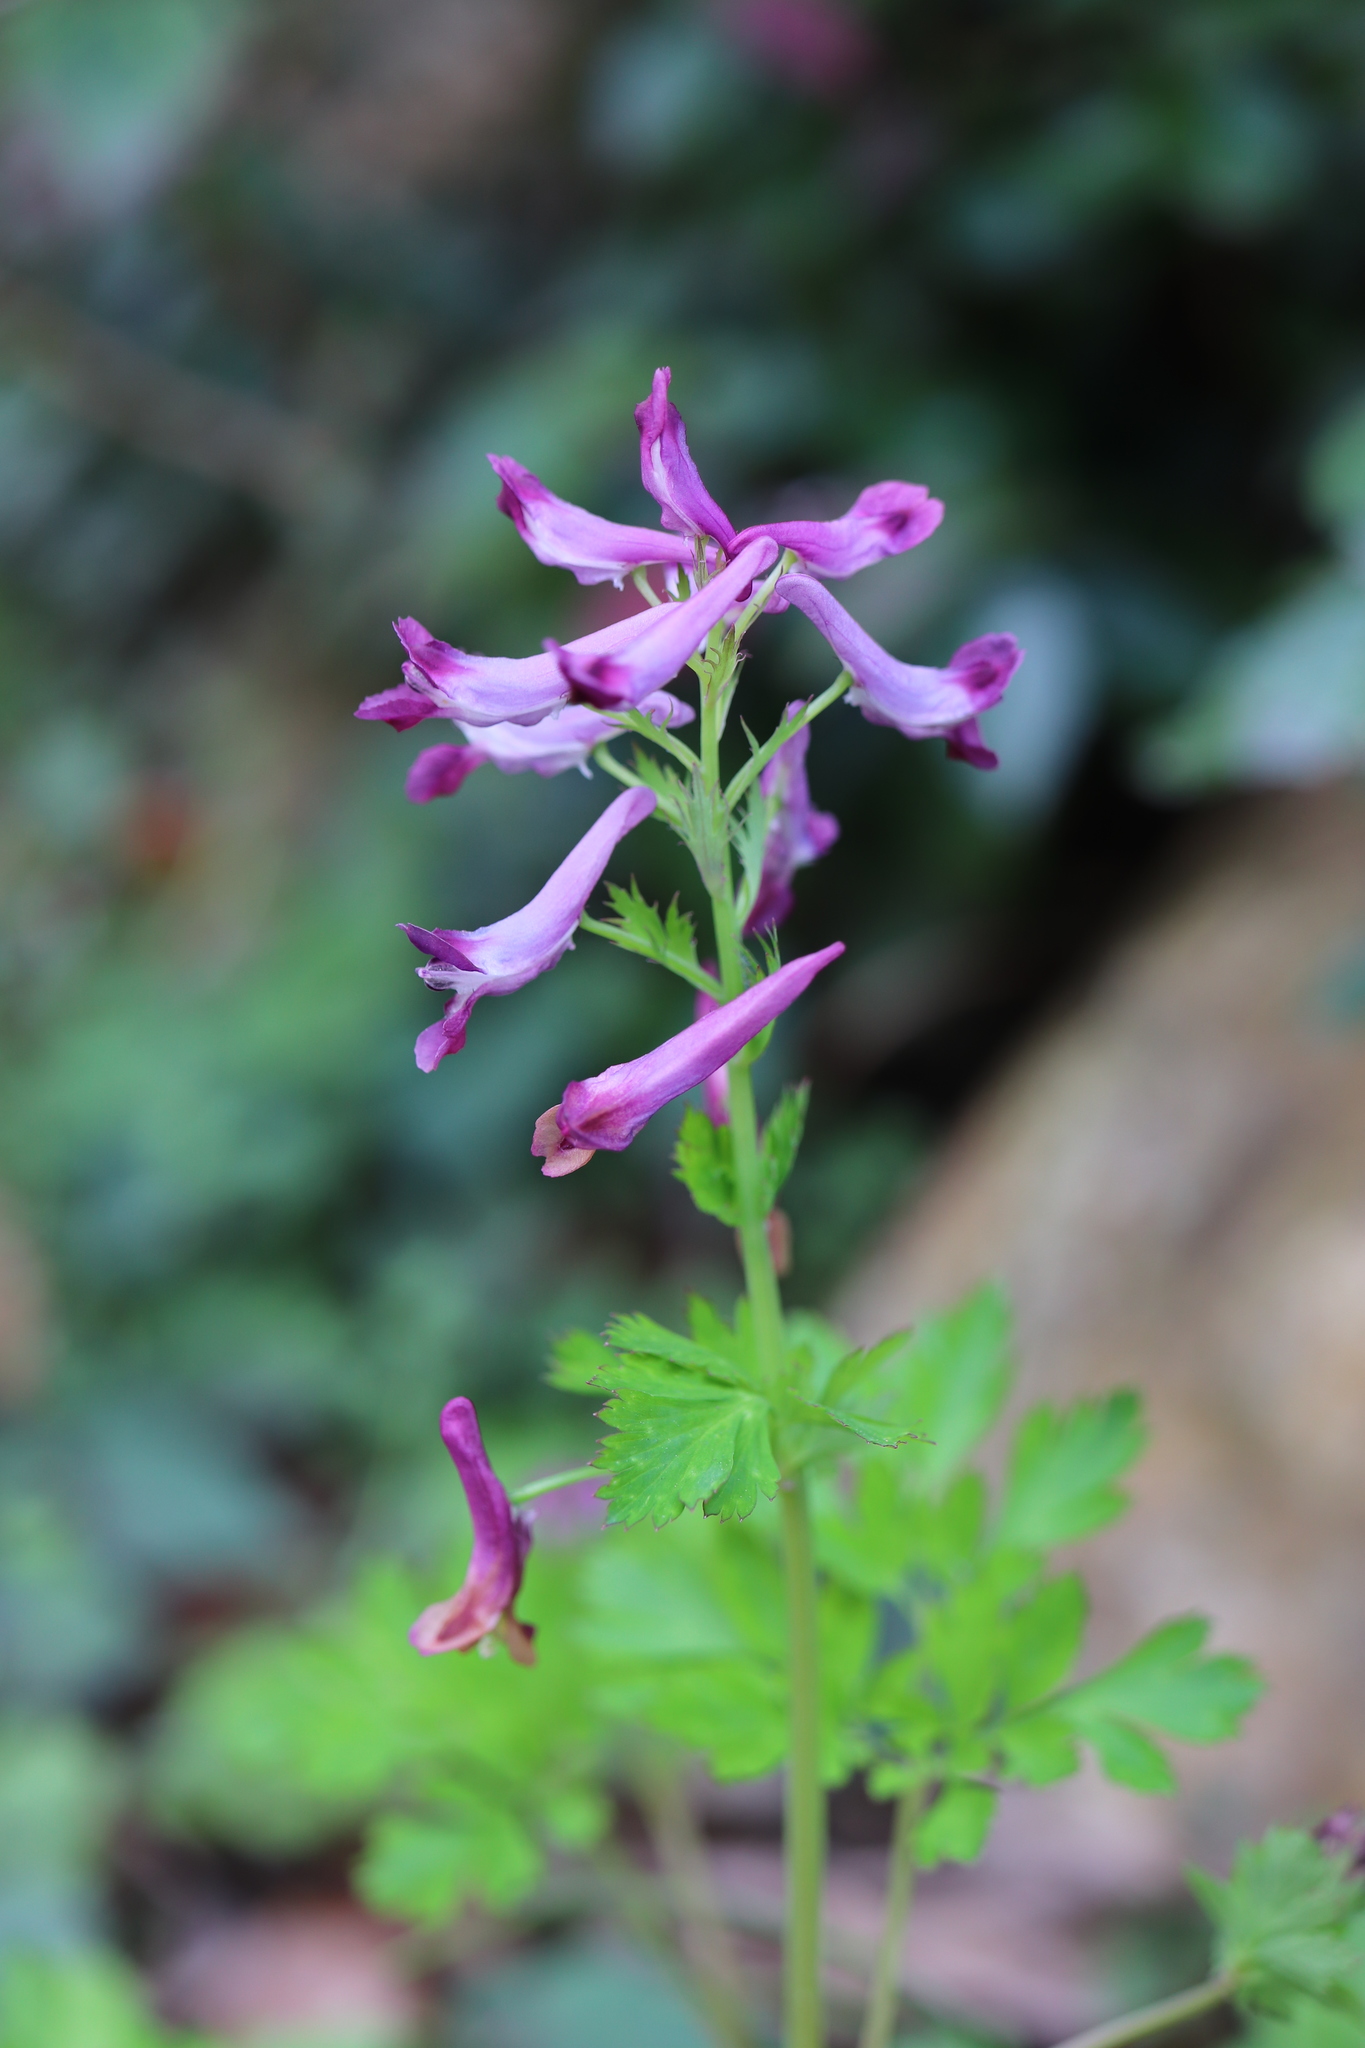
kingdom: Plantae
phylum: Tracheophyta
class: Magnoliopsida
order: Ranunculales
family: Papaveraceae
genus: Corydalis
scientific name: Corydalis incisa
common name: Incised fumewort
